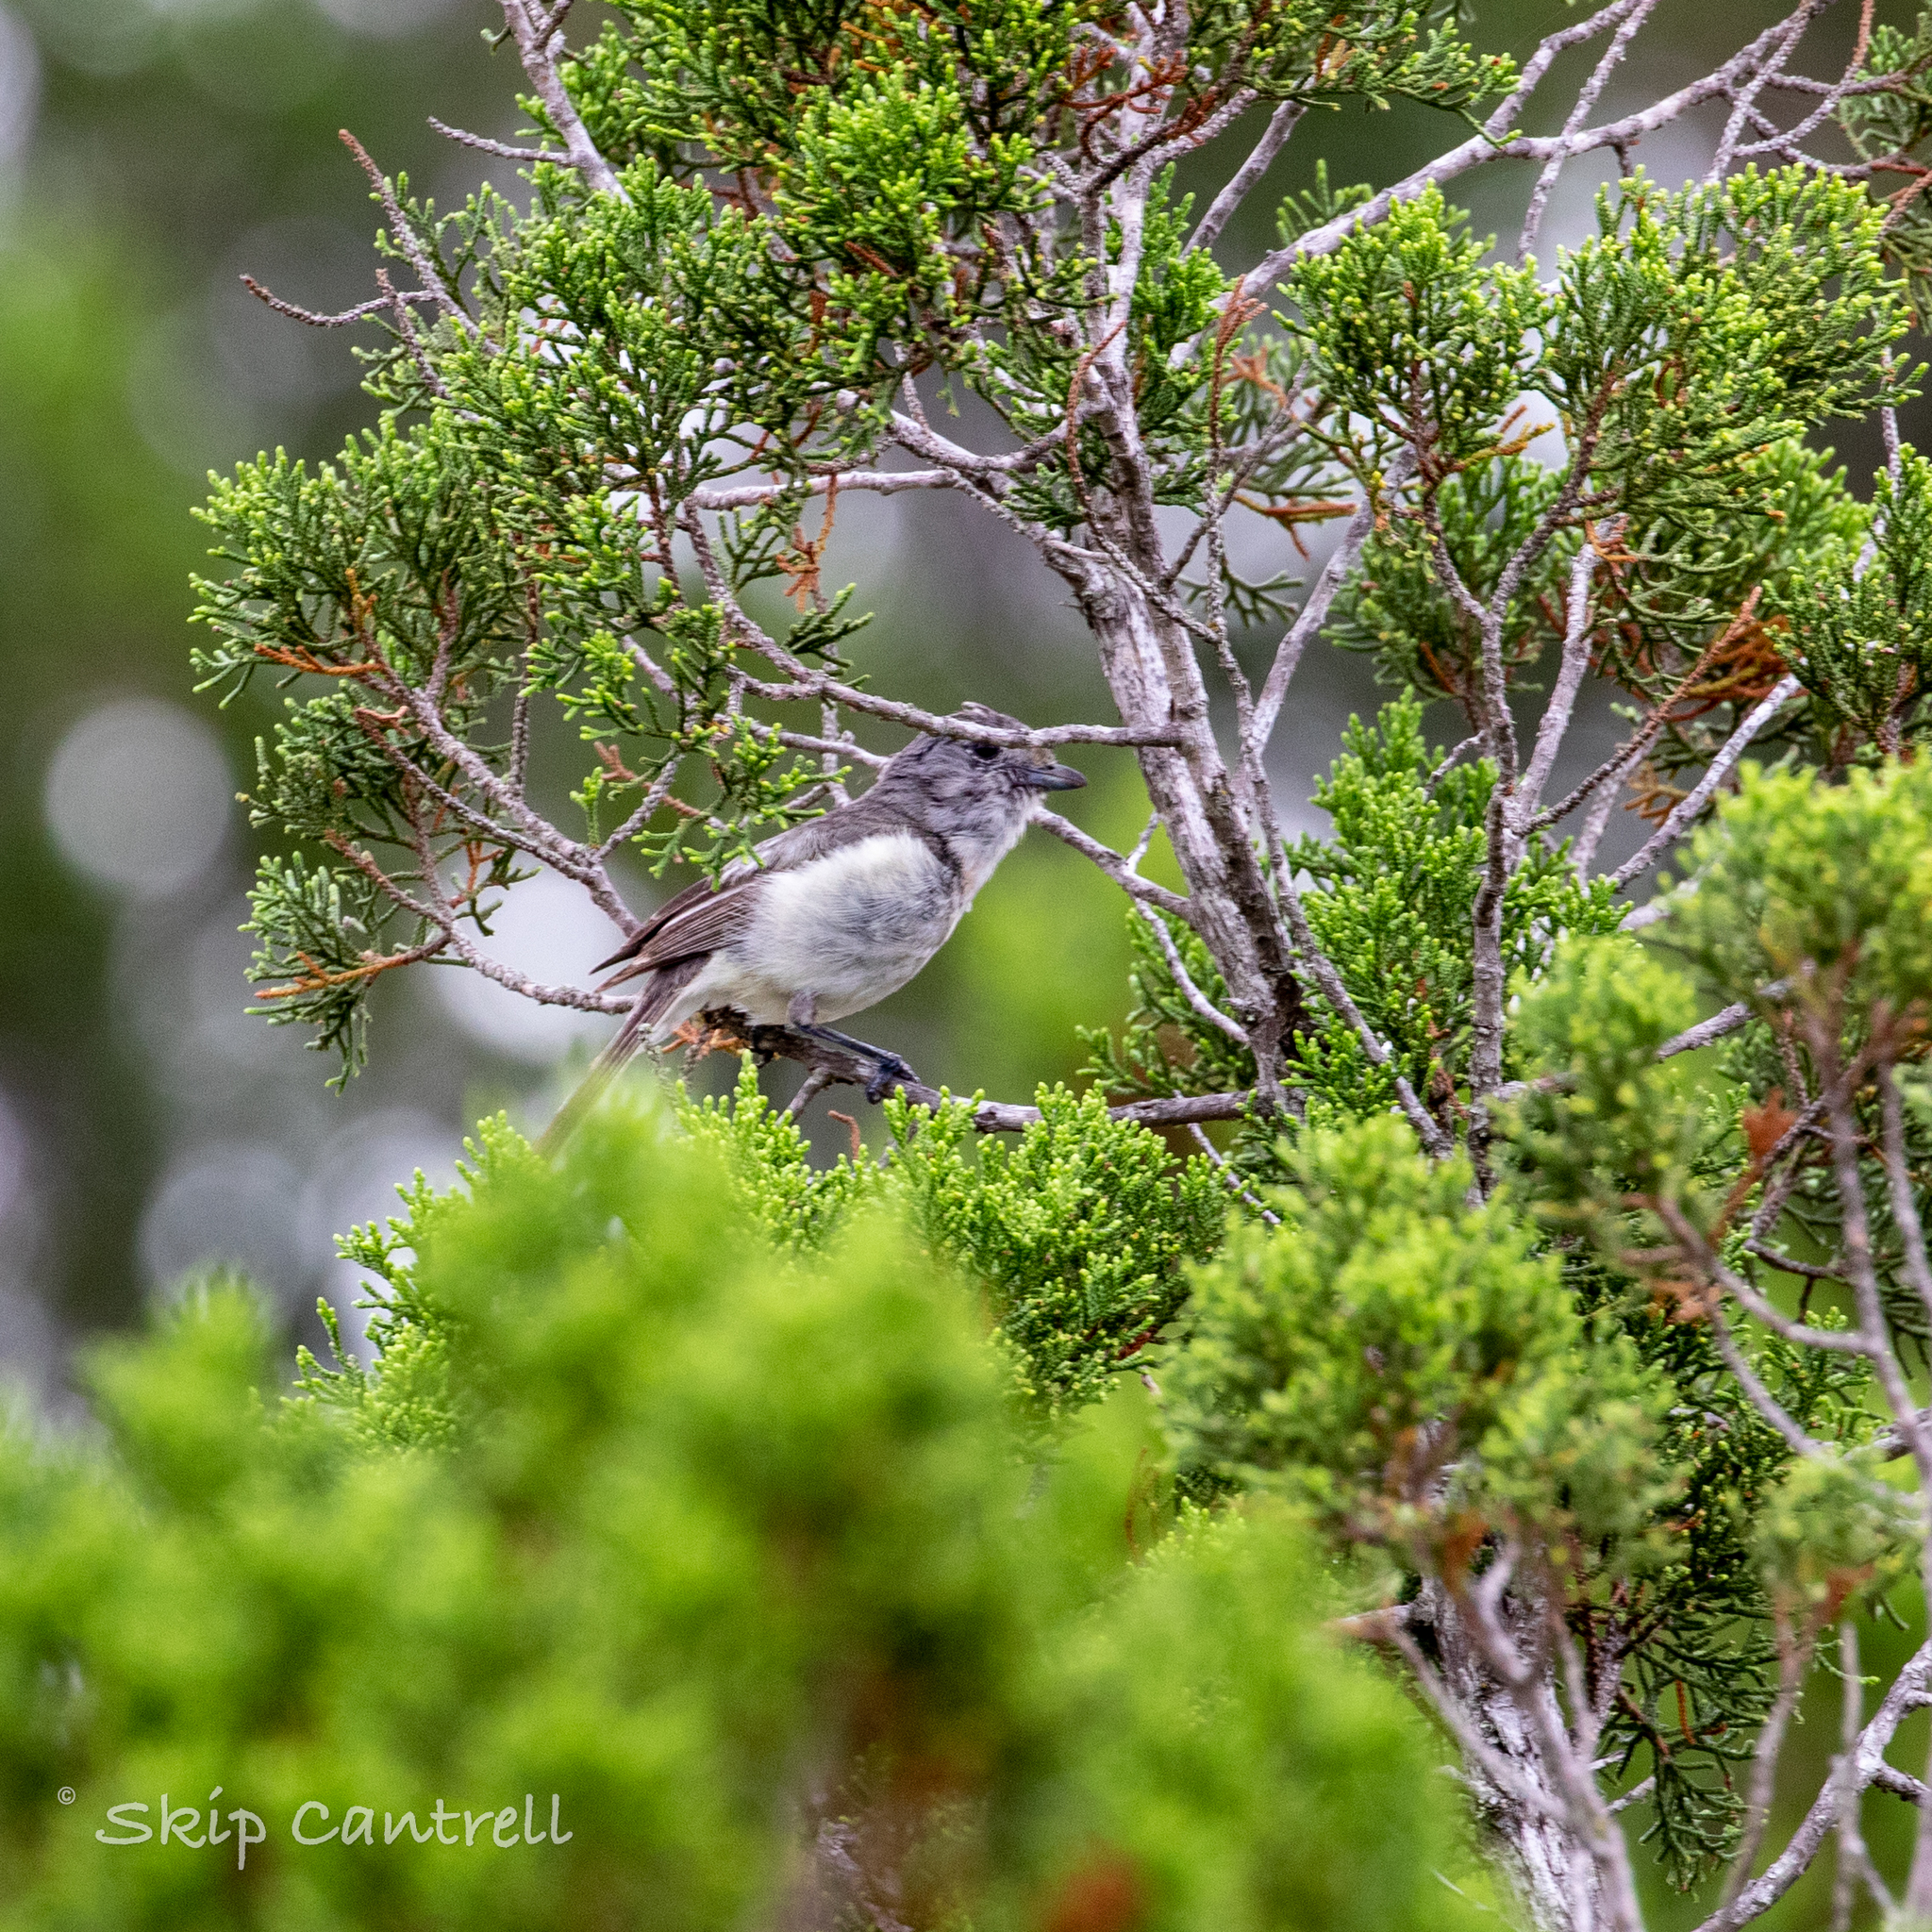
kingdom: Animalia
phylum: Chordata
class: Aves
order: Passeriformes
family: Vireonidae
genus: Vireo
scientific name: Vireo vicinior
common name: Gray vireo
